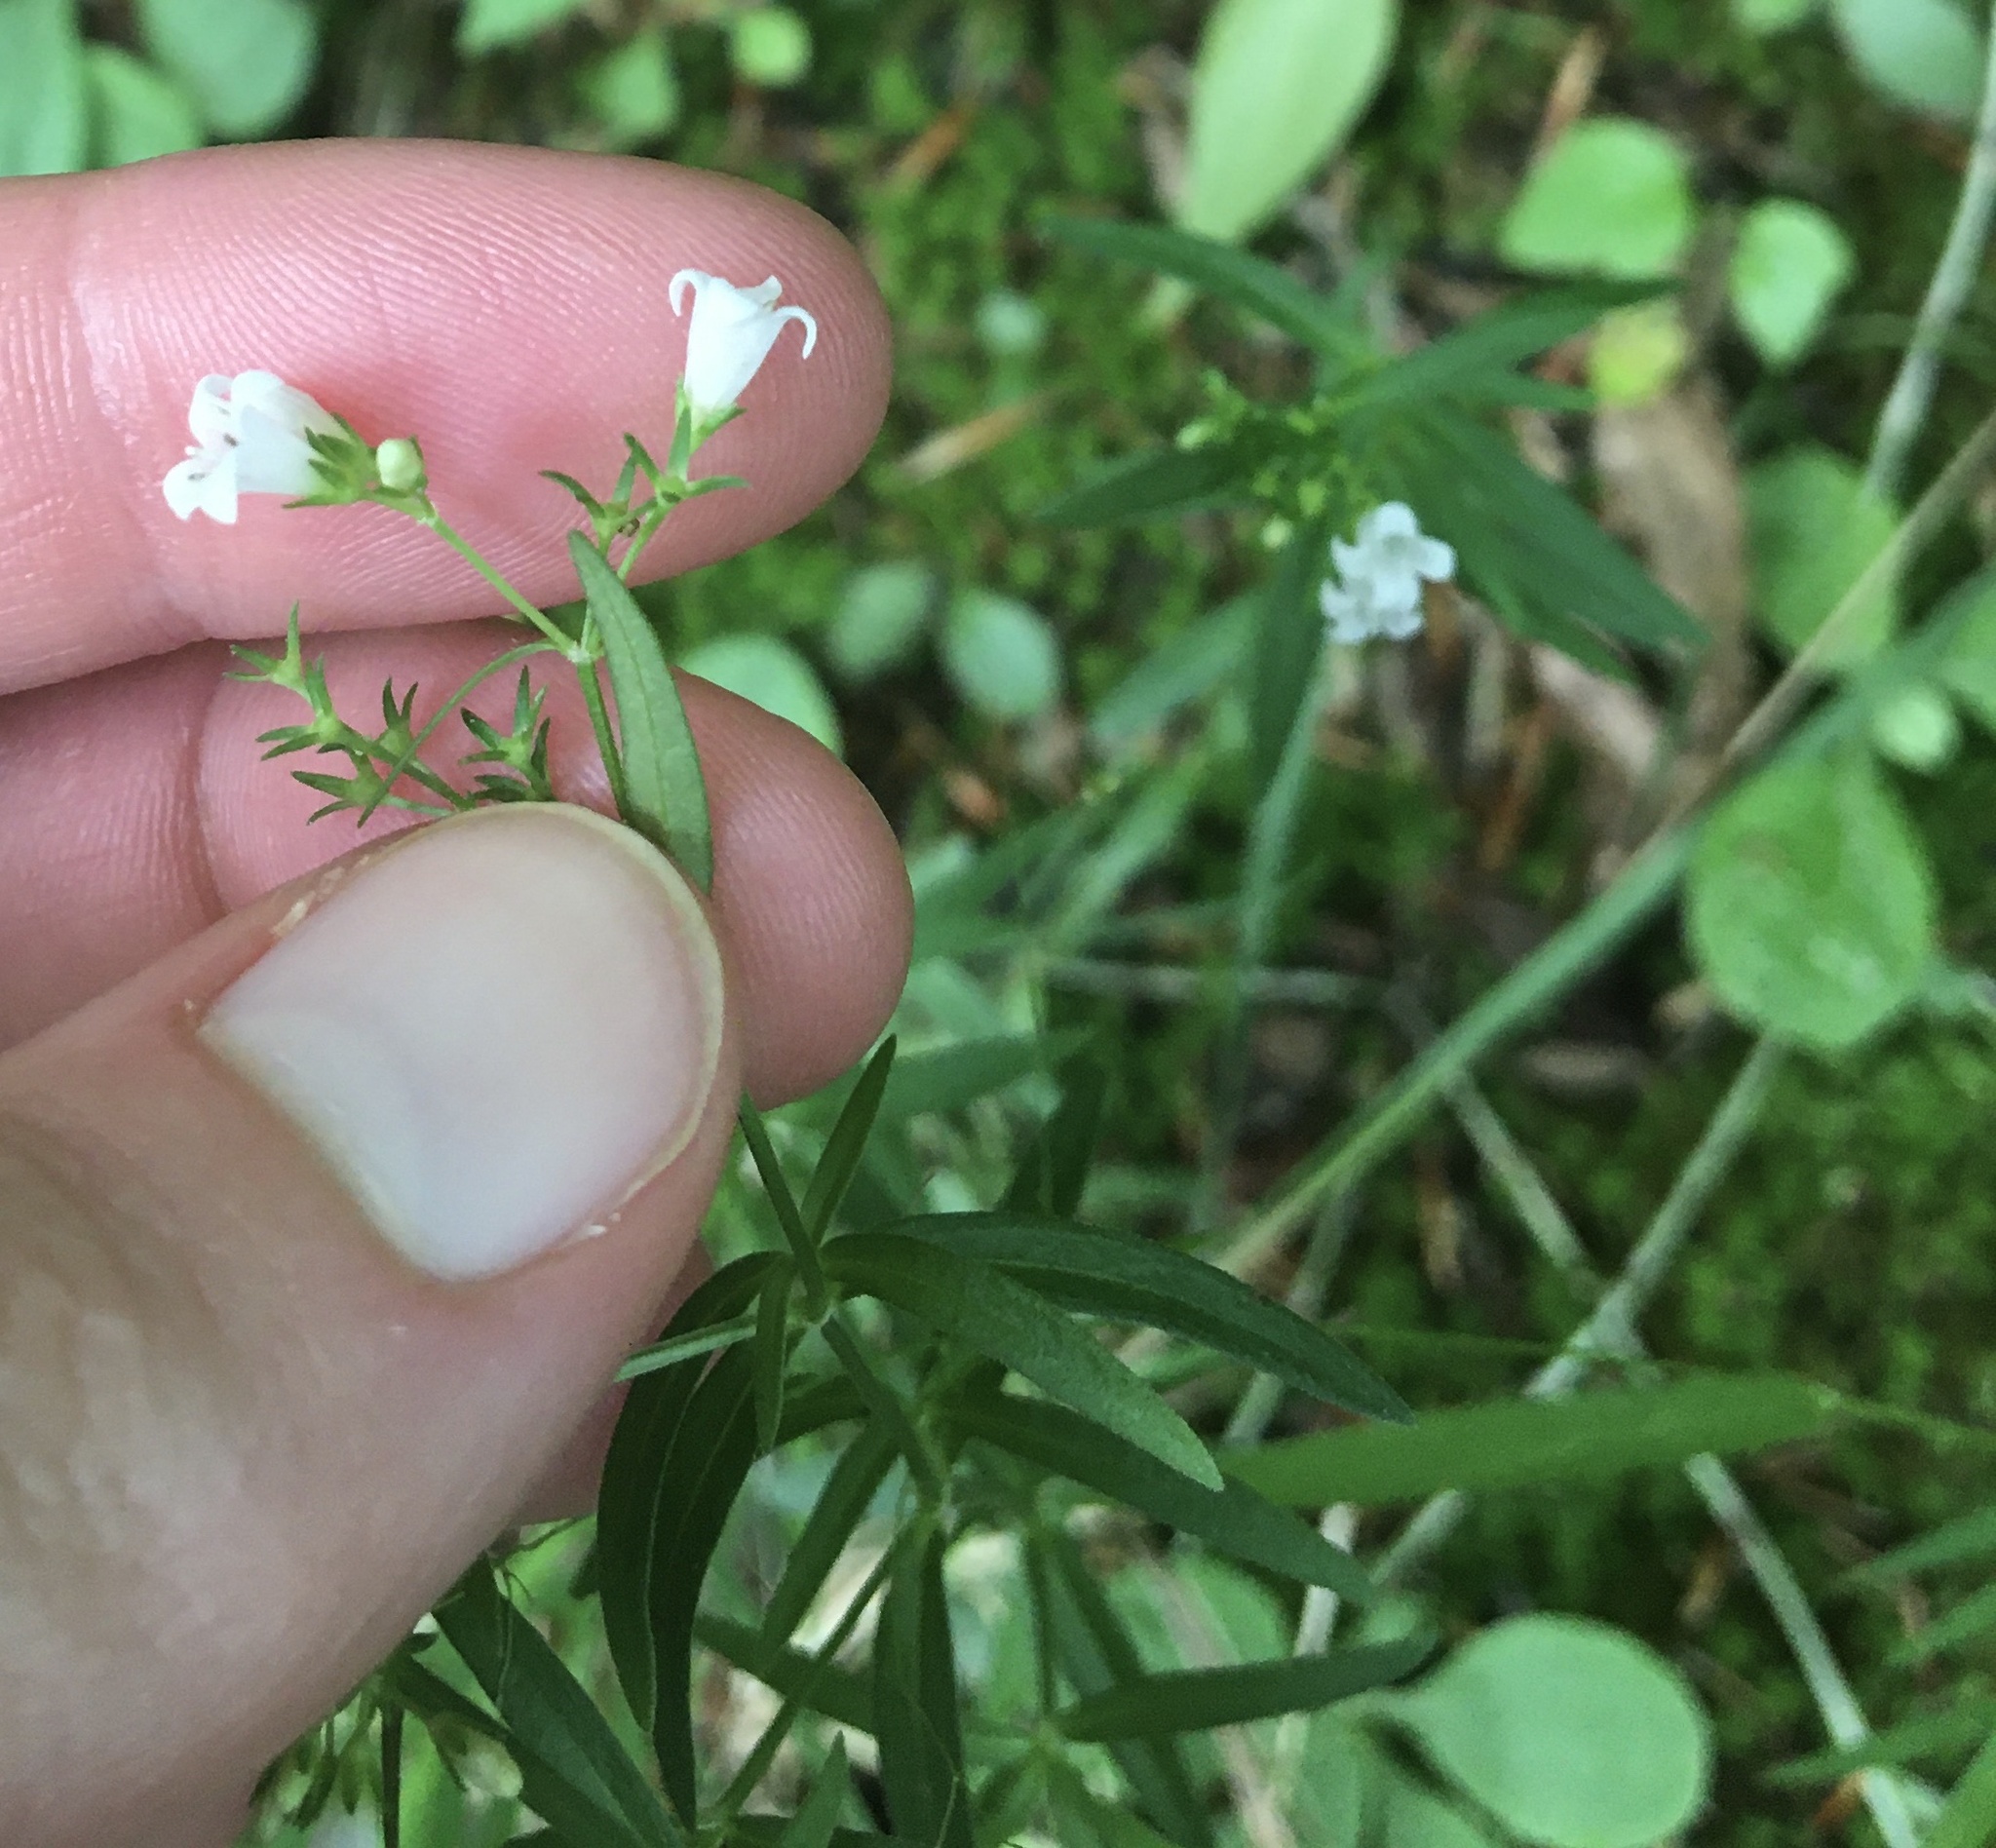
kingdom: Plantae
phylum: Tracheophyta
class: Magnoliopsida
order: Gentianales
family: Rubiaceae
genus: Houstonia
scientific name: Houstonia longifolia
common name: Long-leaved bluets
